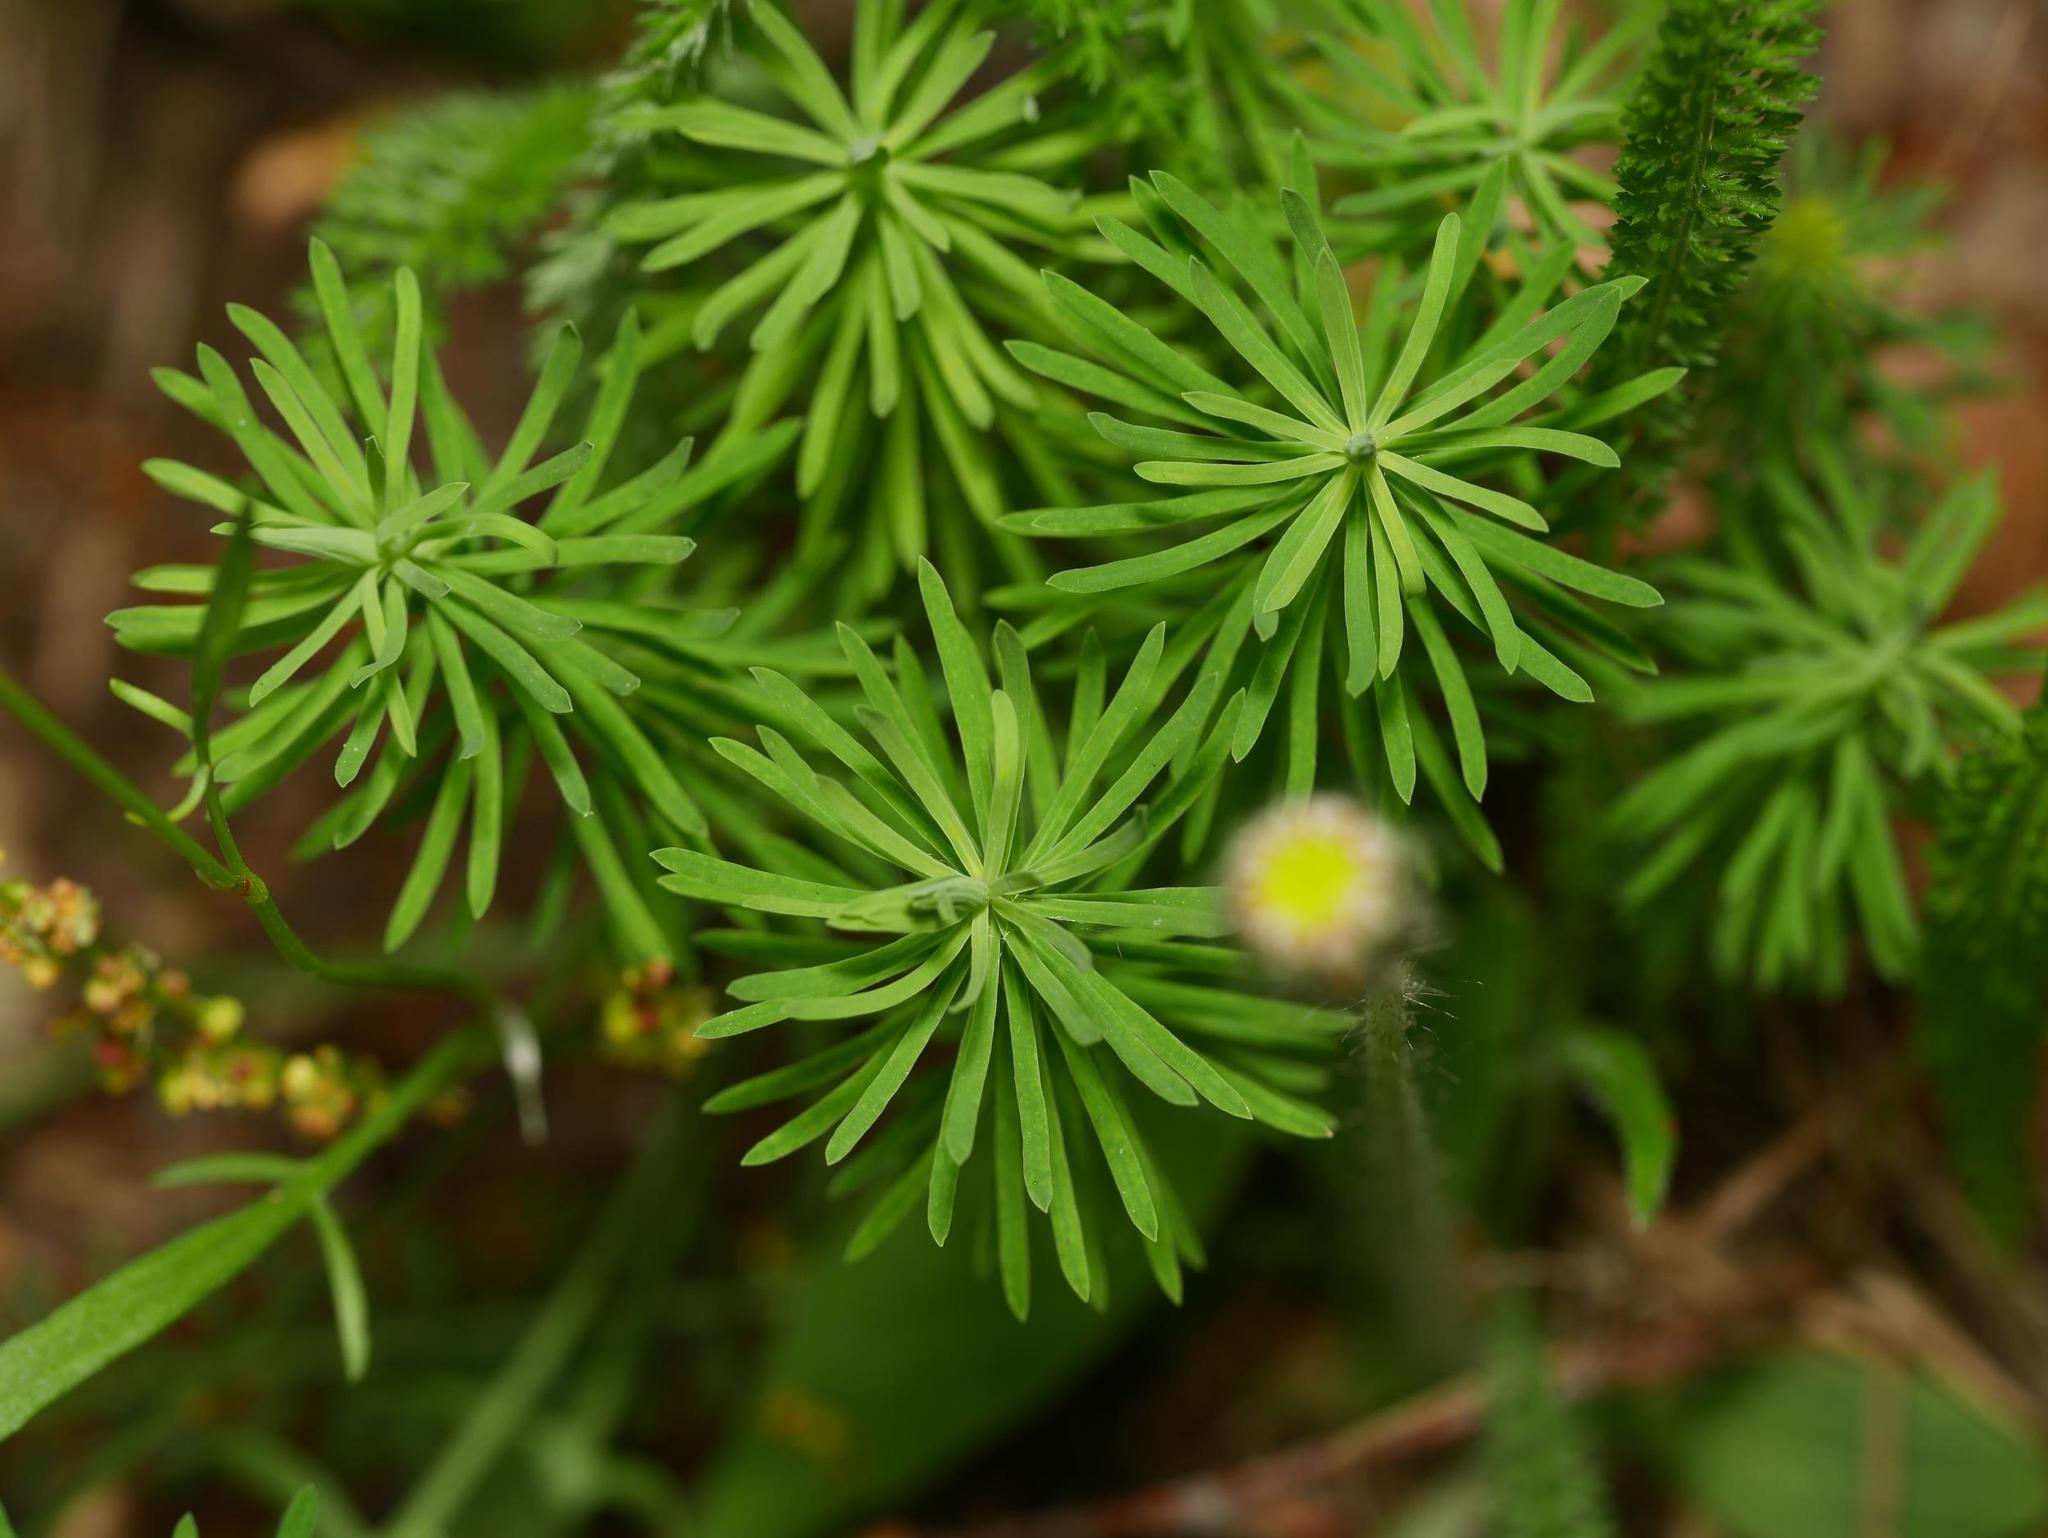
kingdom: Plantae
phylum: Tracheophyta
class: Magnoliopsida
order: Malpighiales
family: Euphorbiaceae
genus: Euphorbia
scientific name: Euphorbia cyparissias
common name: Cypress spurge
